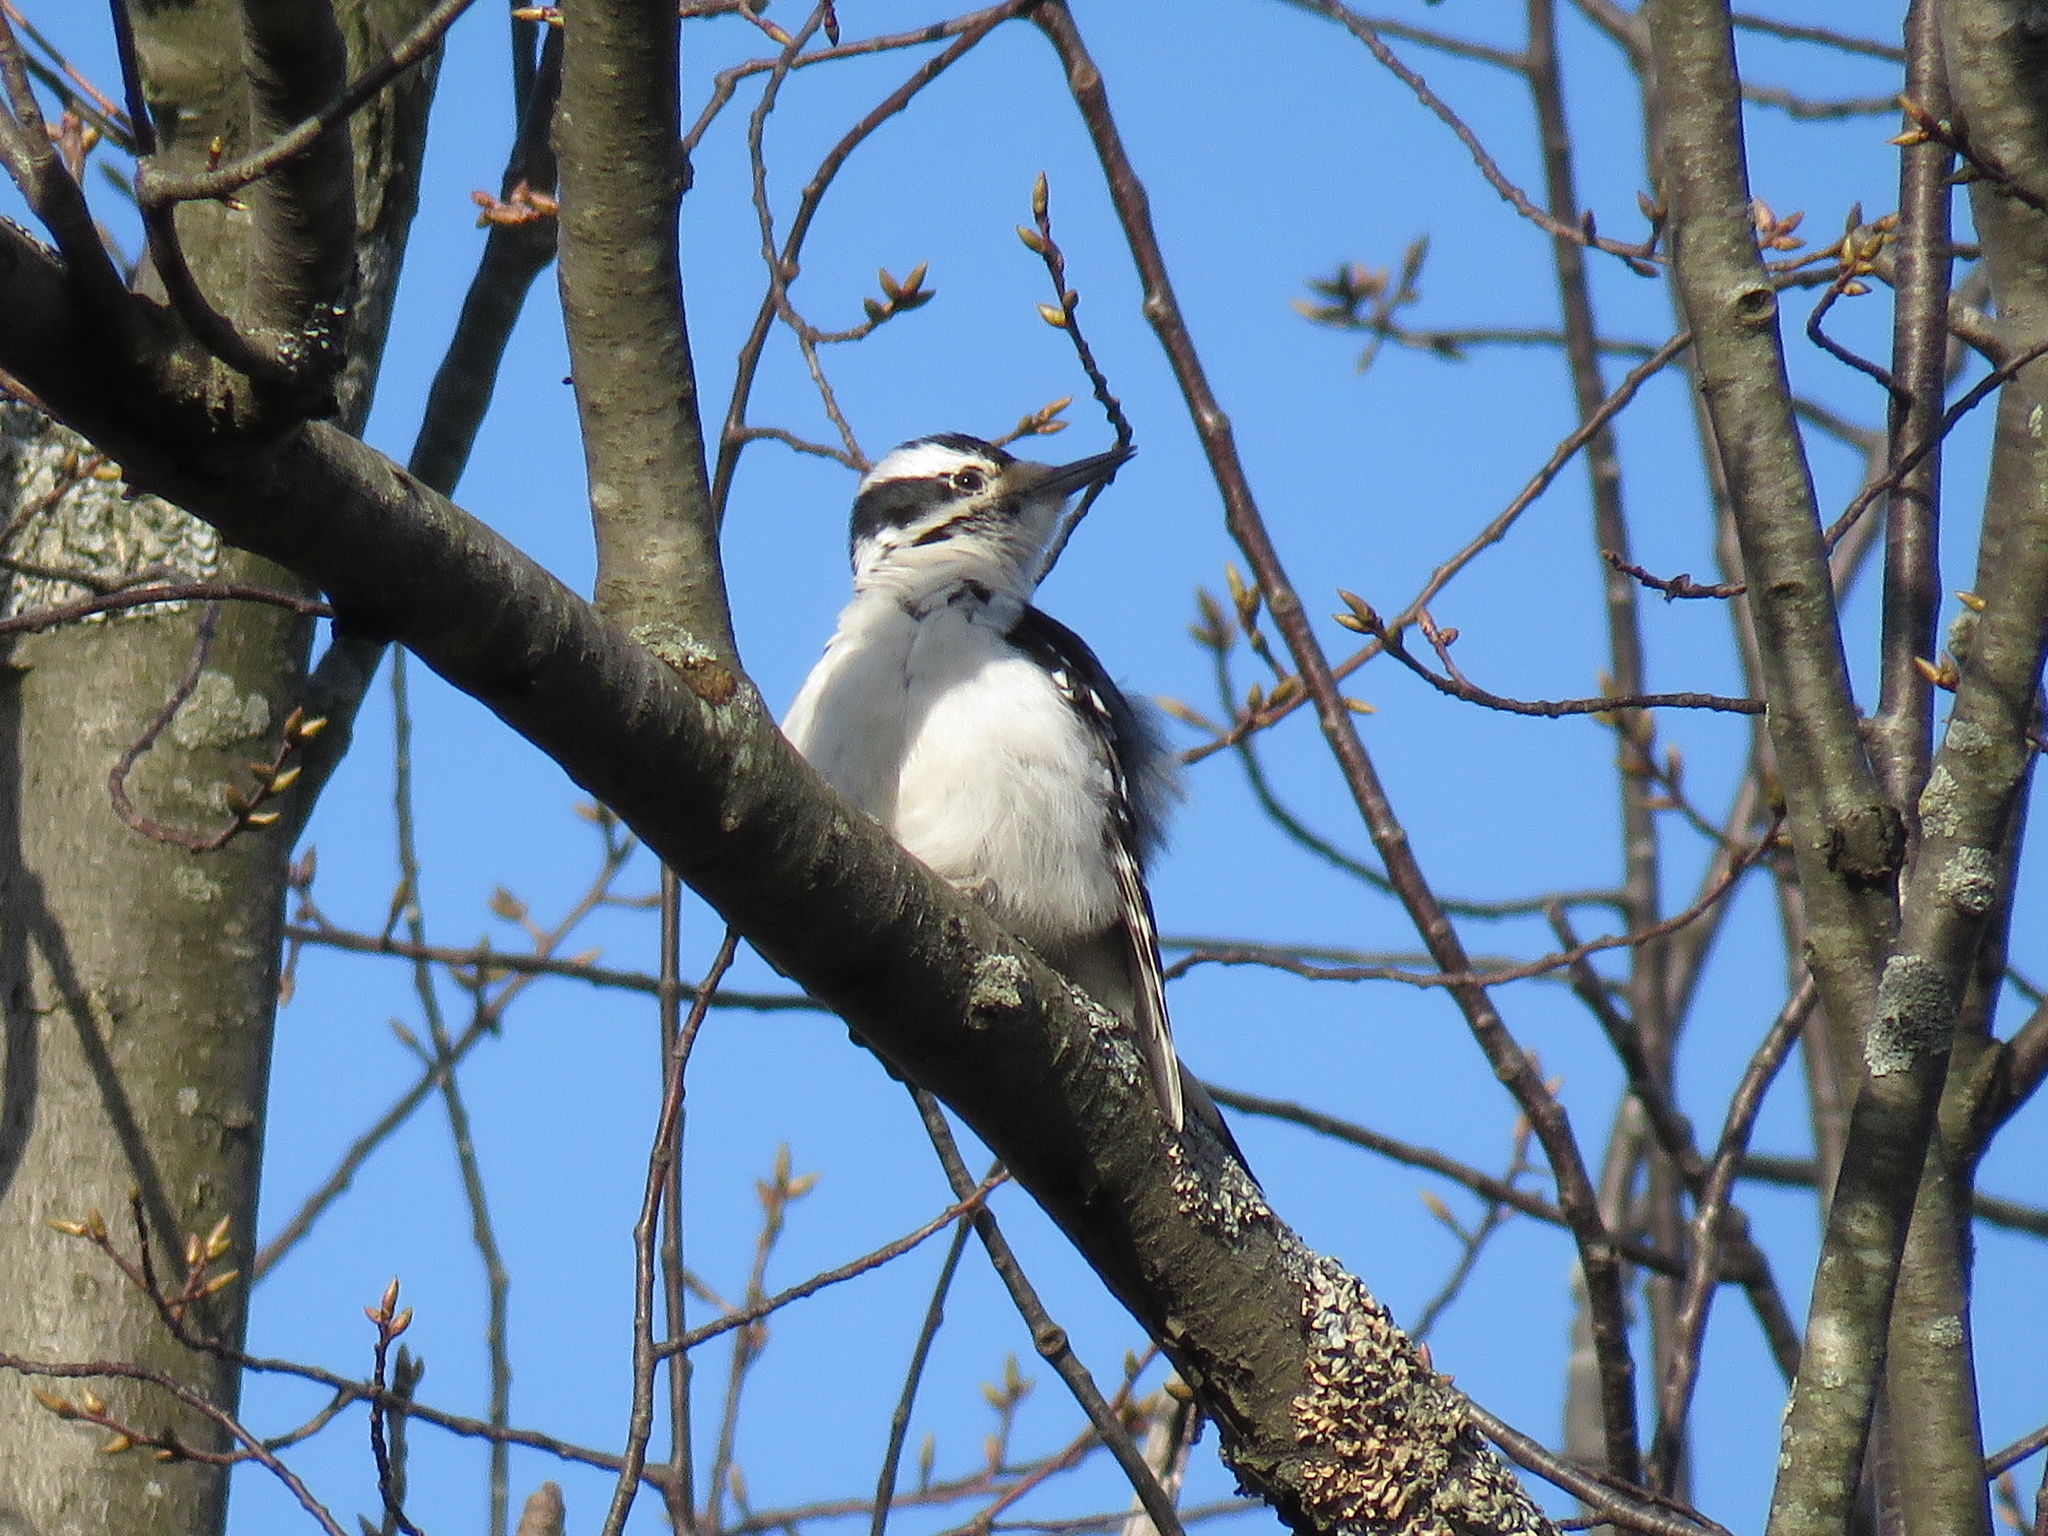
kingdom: Animalia
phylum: Chordata
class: Aves
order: Piciformes
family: Picidae
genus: Leuconotopicus
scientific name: Leuconotopicus villosus
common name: Hairy woodpecker
